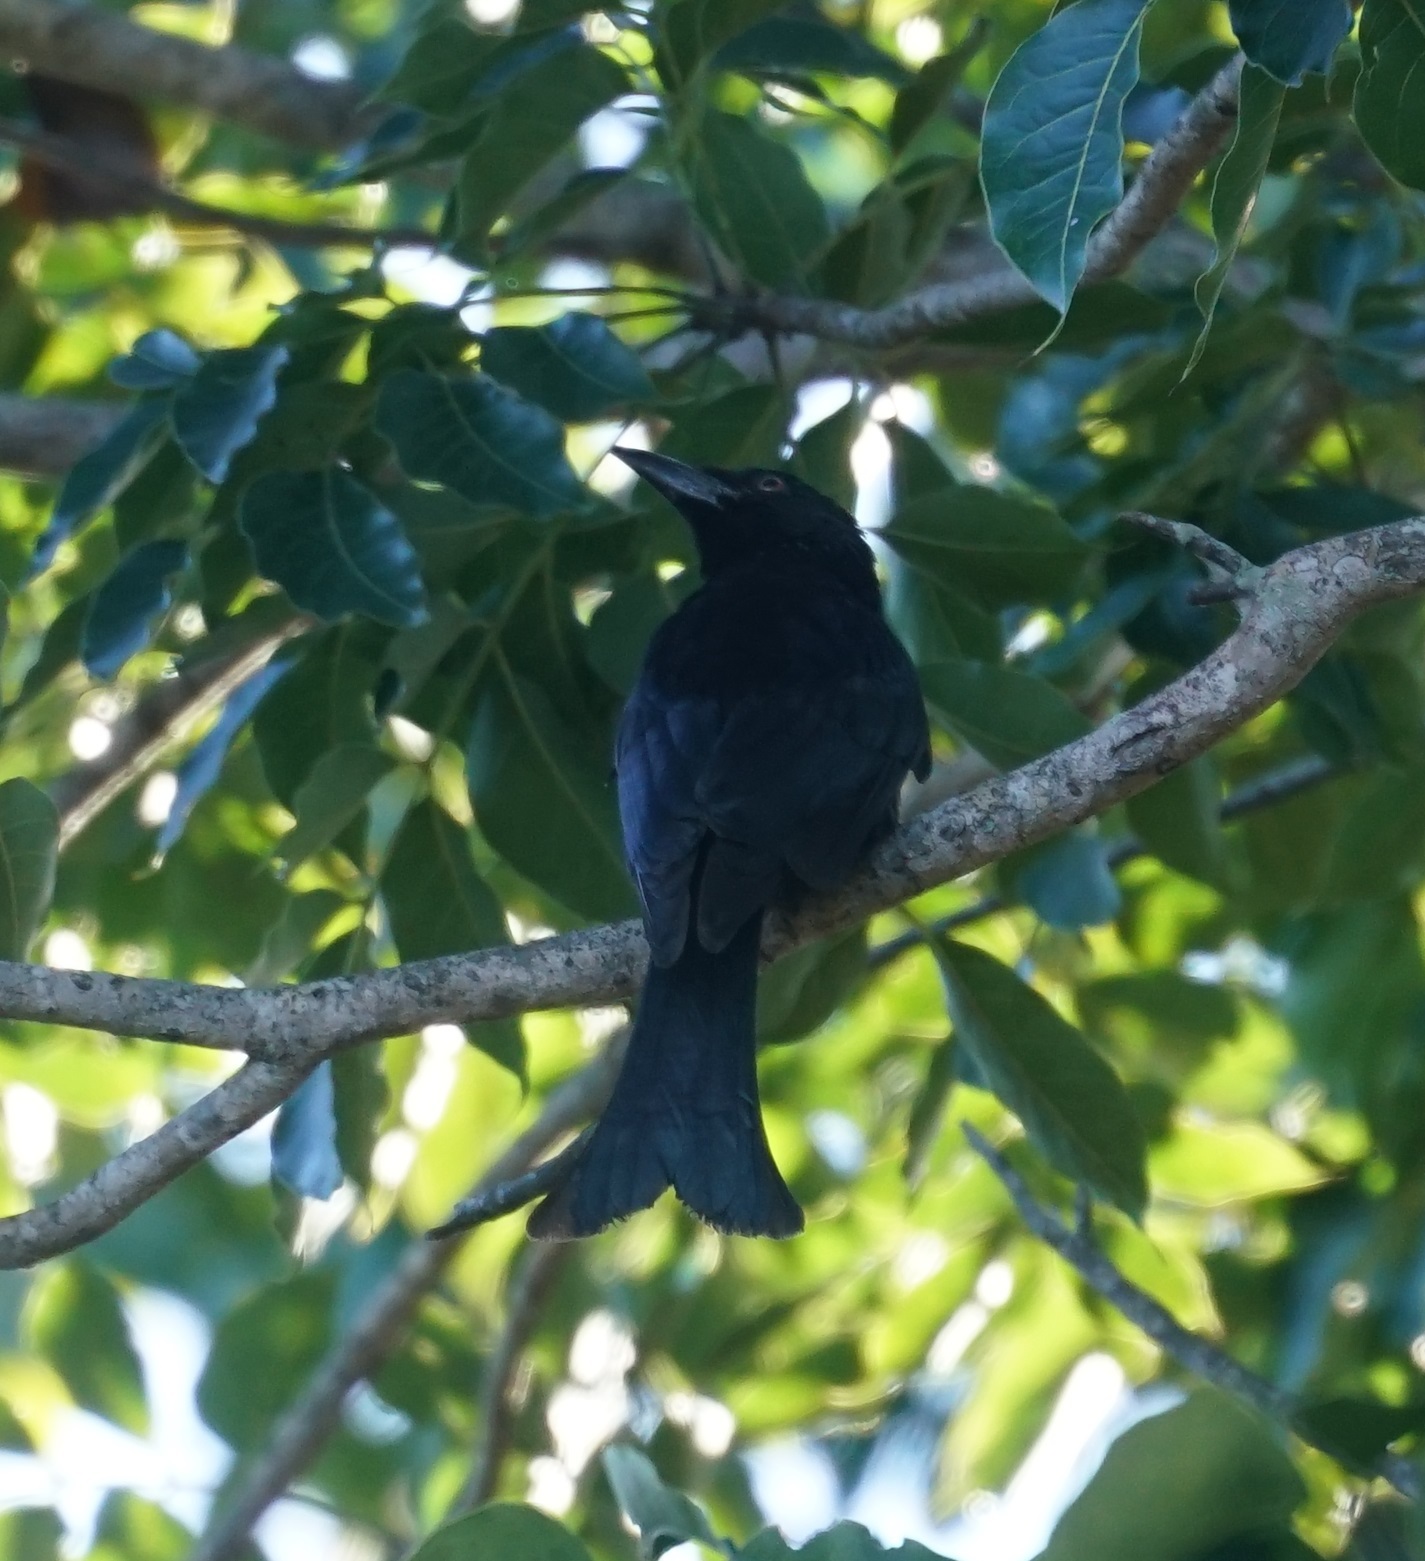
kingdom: Animalia
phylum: Chordata
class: Aves
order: Passeriformes
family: Dicruridae
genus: Dicrurus
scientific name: Dicrurus bracteatus
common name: Spangled drongo
